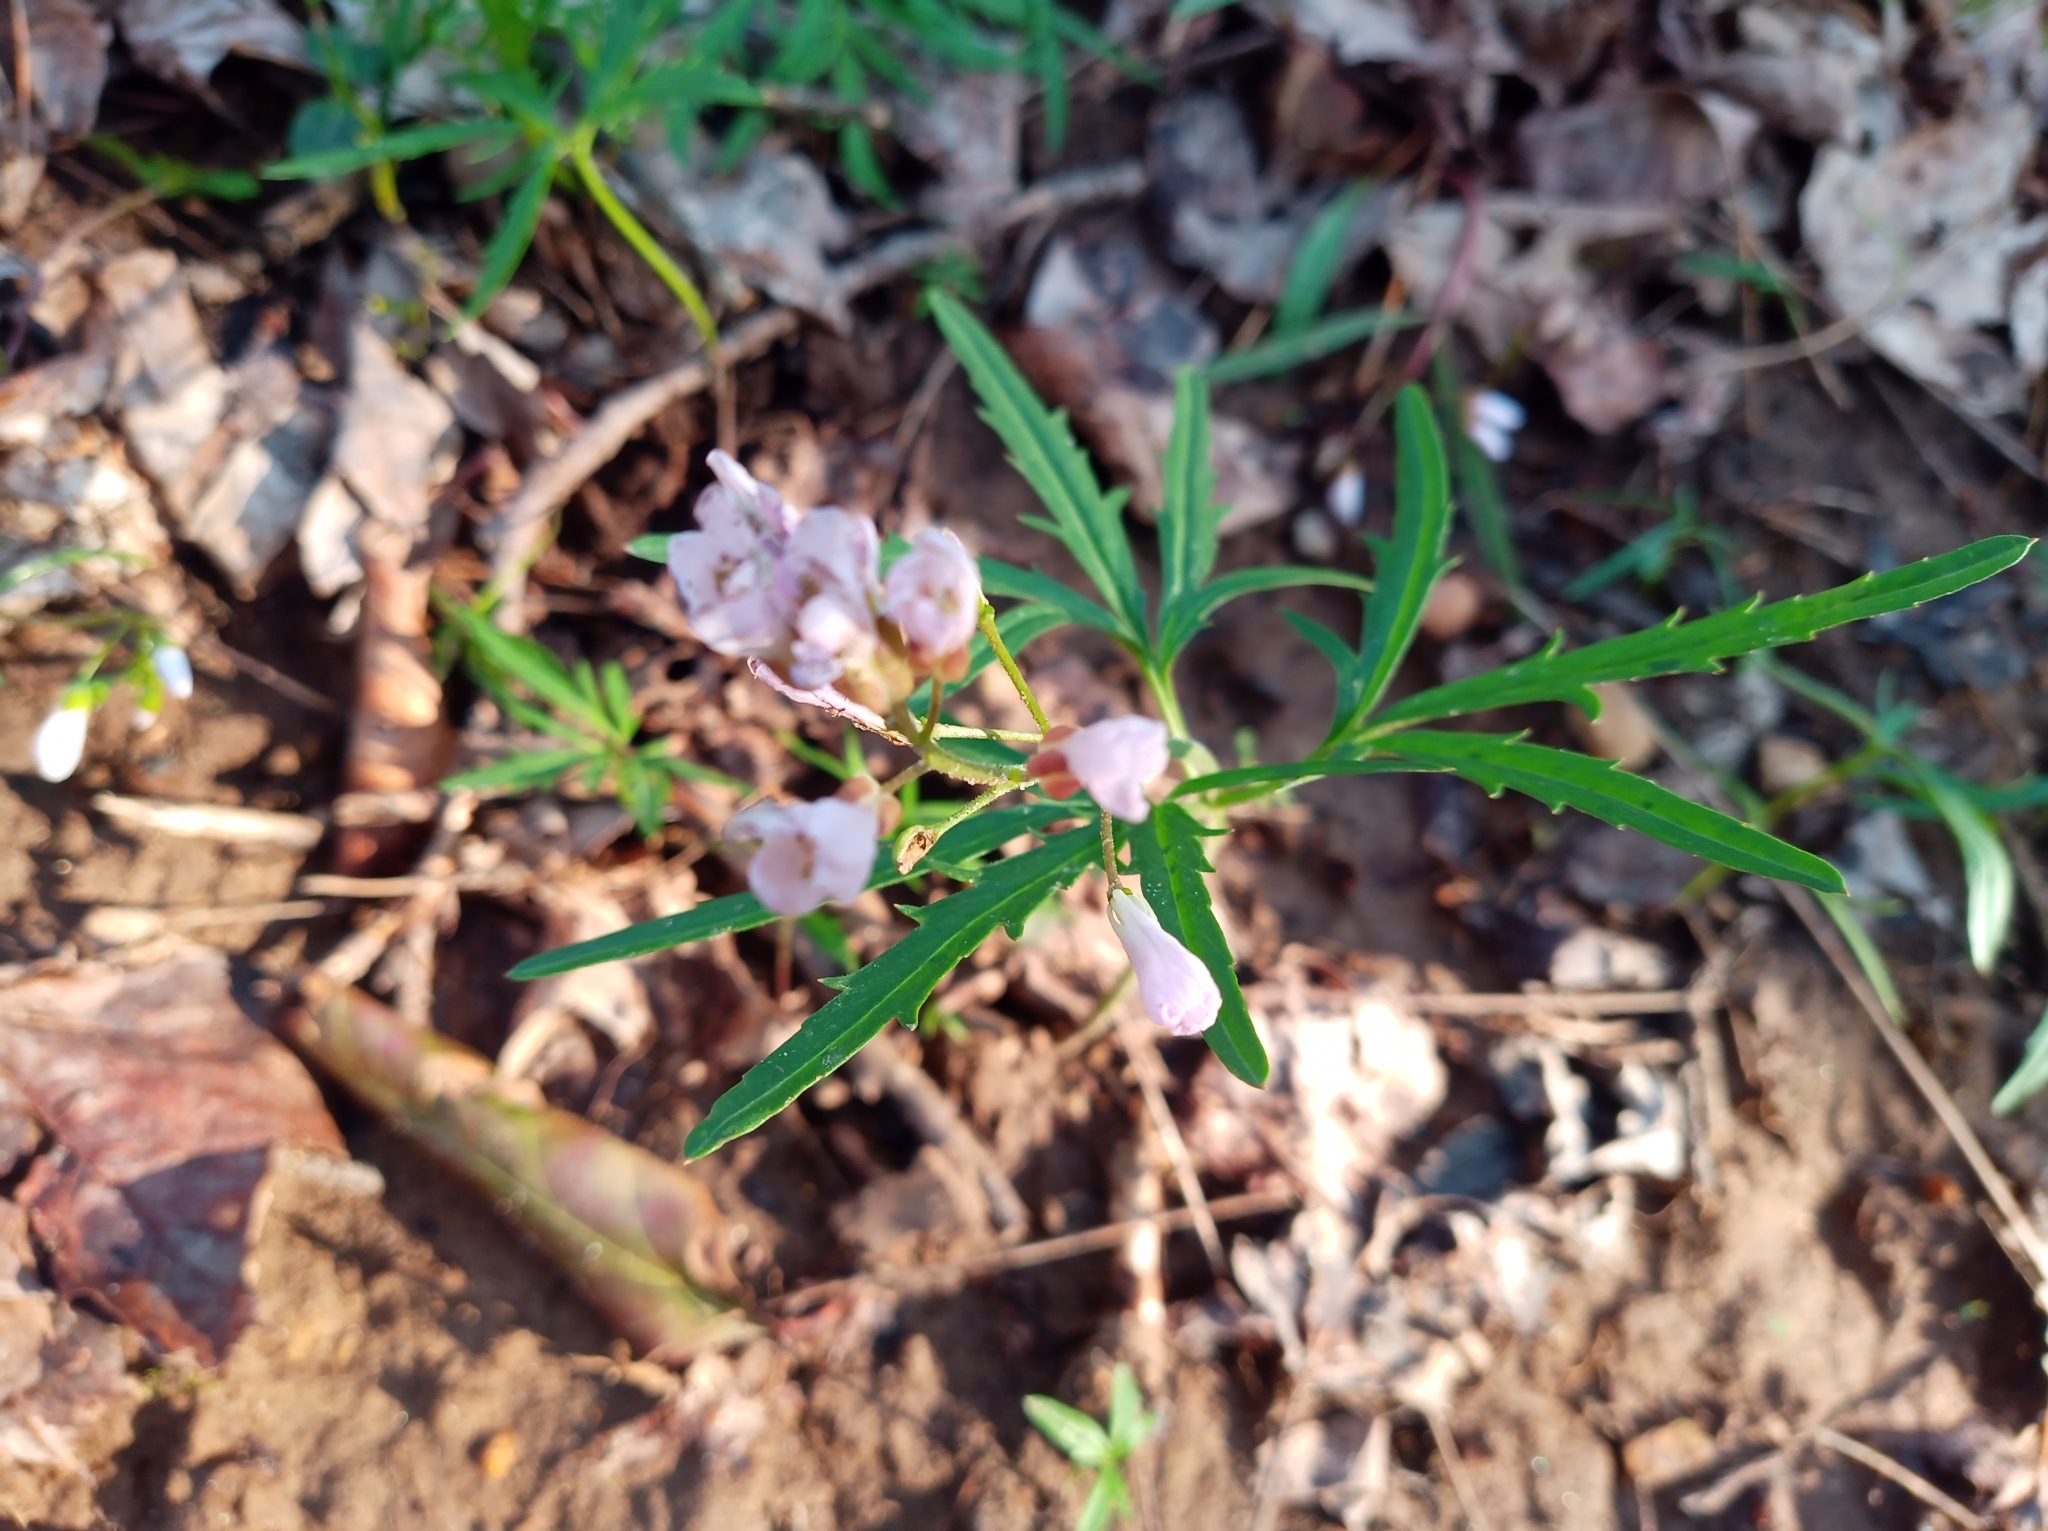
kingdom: Plantae
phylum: Tracheophyta
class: Magnoliopsida
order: Brassicales
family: Brassicaceae
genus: Cardamine
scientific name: Cardamine concatenata
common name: Cut-leaf toothcup
